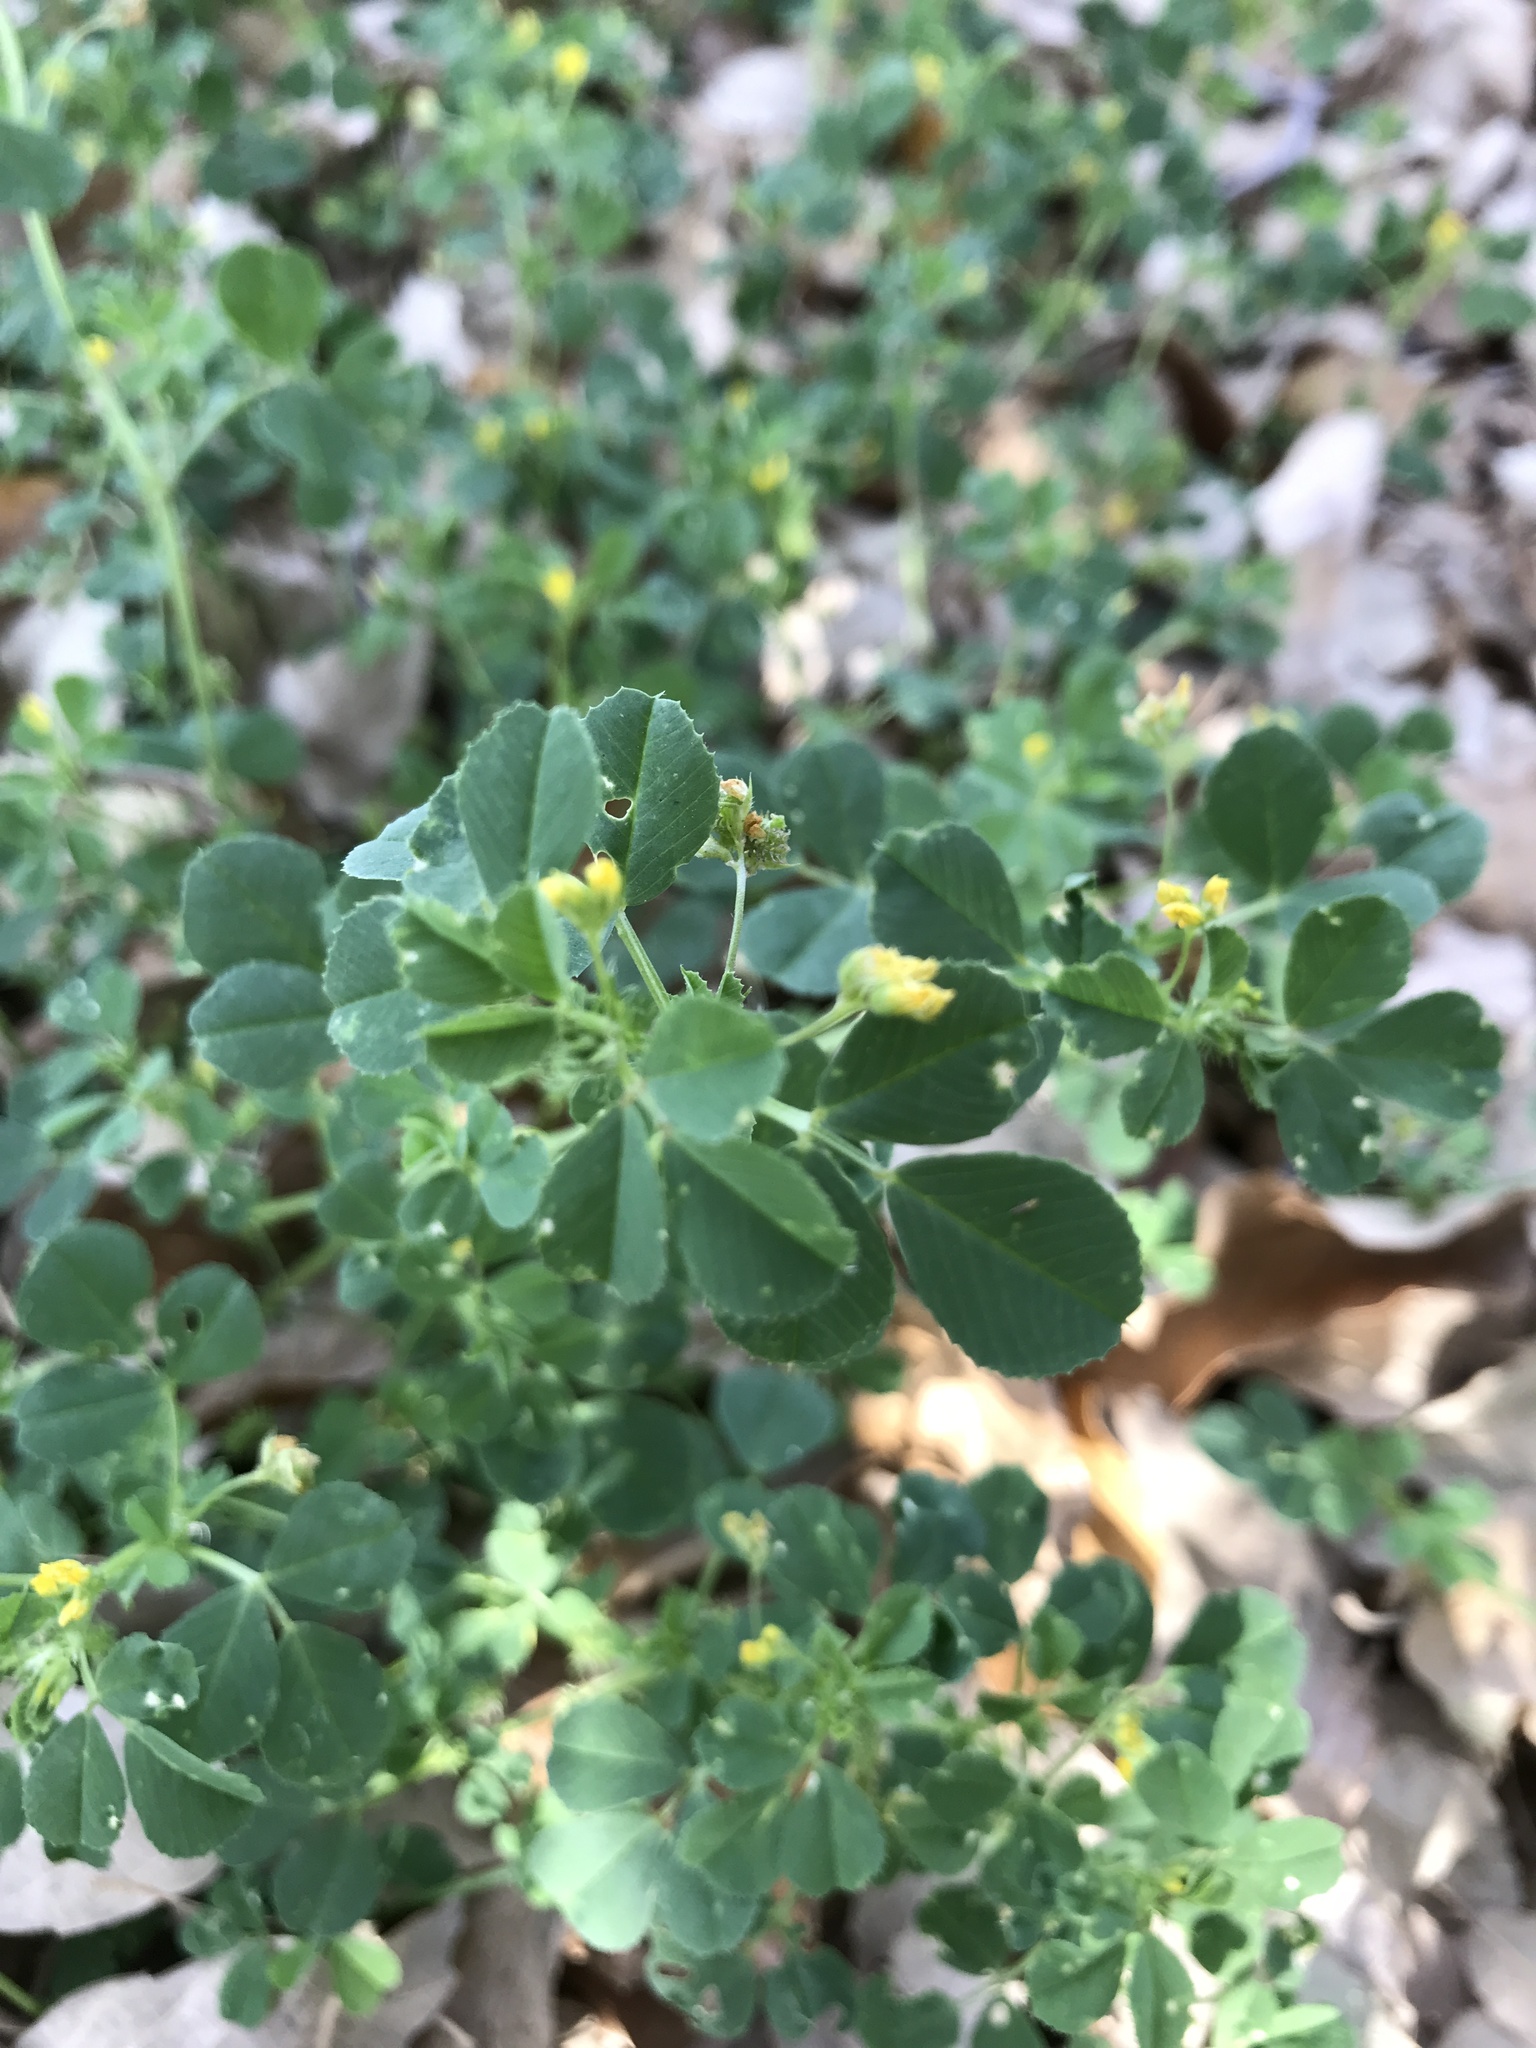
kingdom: Plantae
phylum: Tracheophyta
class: Magnoliopsida
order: Fabales
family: Fabaceae
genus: Medicago
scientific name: Medicago polymorpha
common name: Burclover
